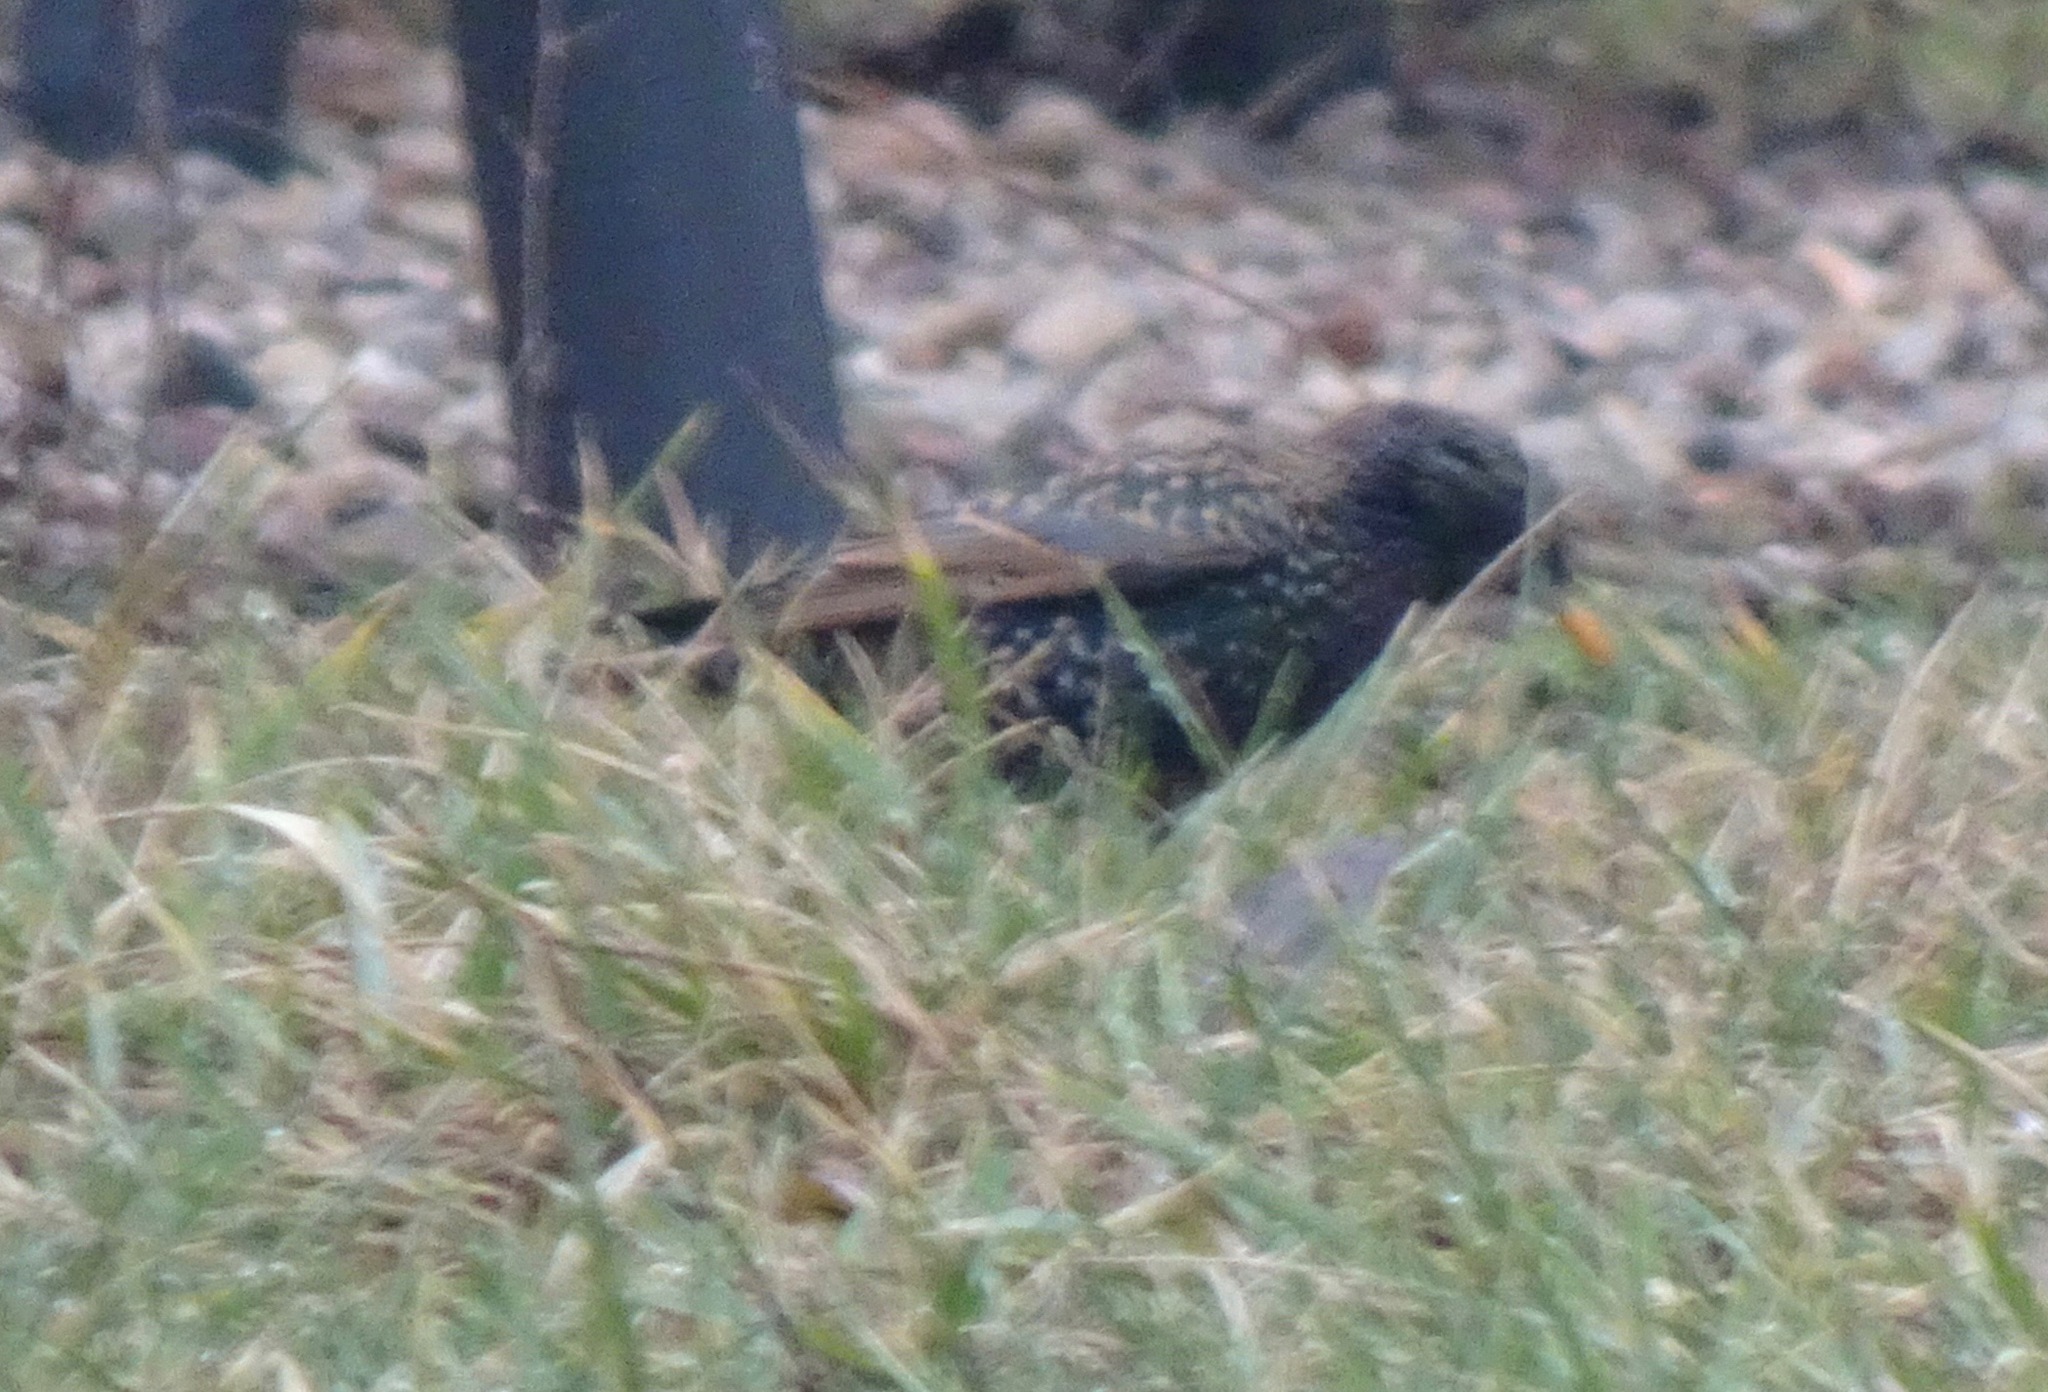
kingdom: Animalia
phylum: Chordata
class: Aves
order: Passeriformes
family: Sturnidae
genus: Sturnus
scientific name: Sturnus vulgaris
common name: Common starling
